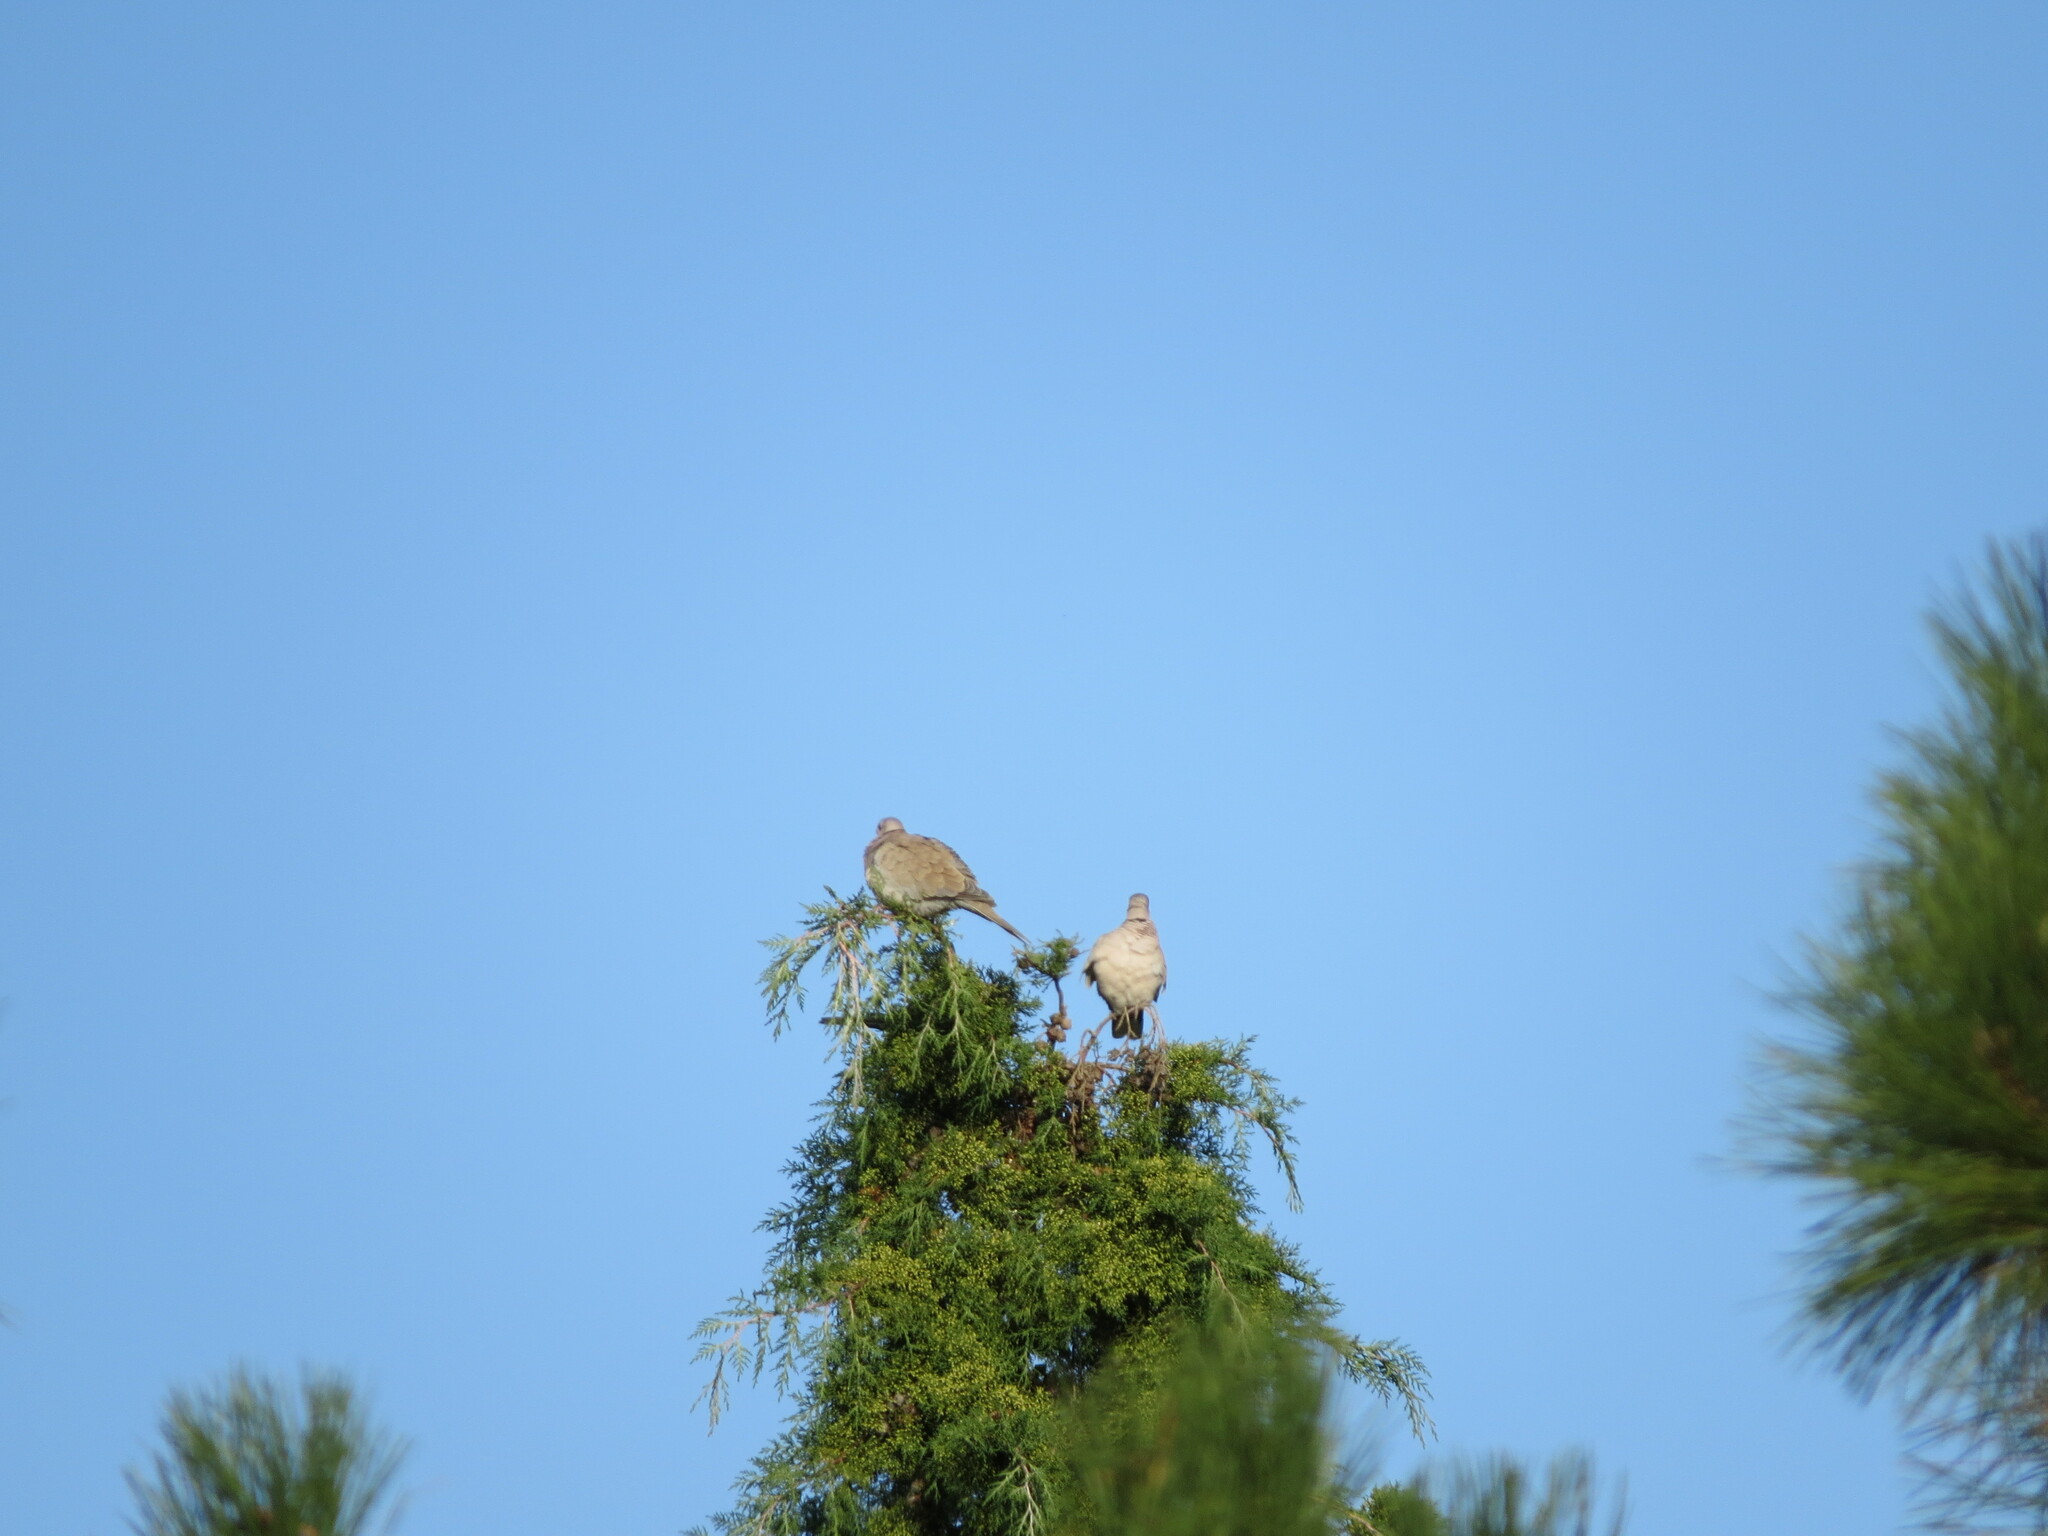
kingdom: Animalia
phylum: Chordata
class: Aves
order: Columbiformes
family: Columbidae
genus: Streptopelia
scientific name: Streptopelia decaocto
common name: Eurasian collared dove
